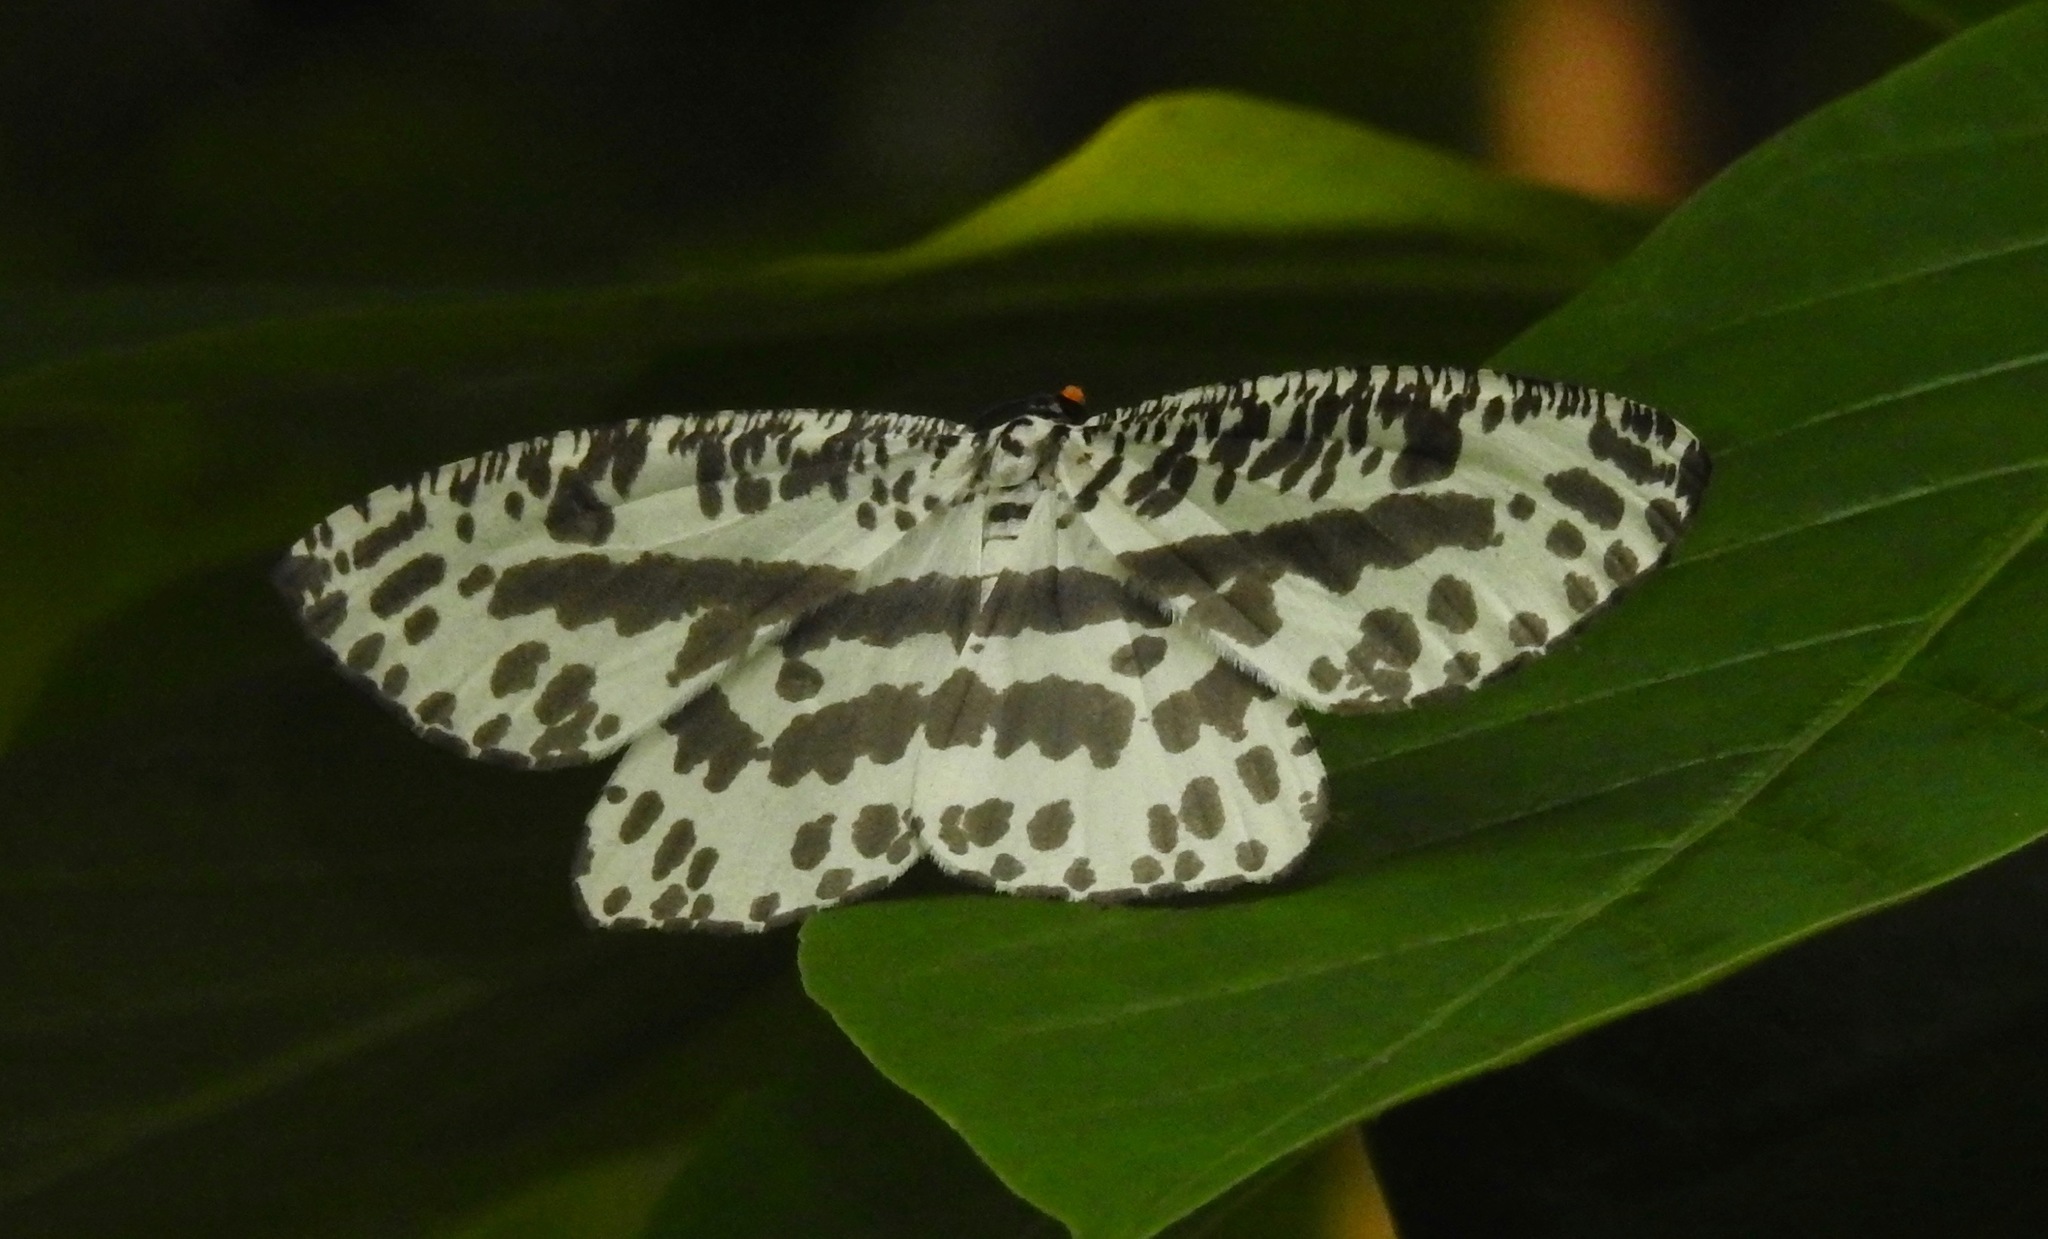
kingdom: Animalia
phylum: Arthropoda
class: Insecta
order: Lepidoptera
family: Geometridae
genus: Abraxaphantes
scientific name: Abraxaphantes perampla
